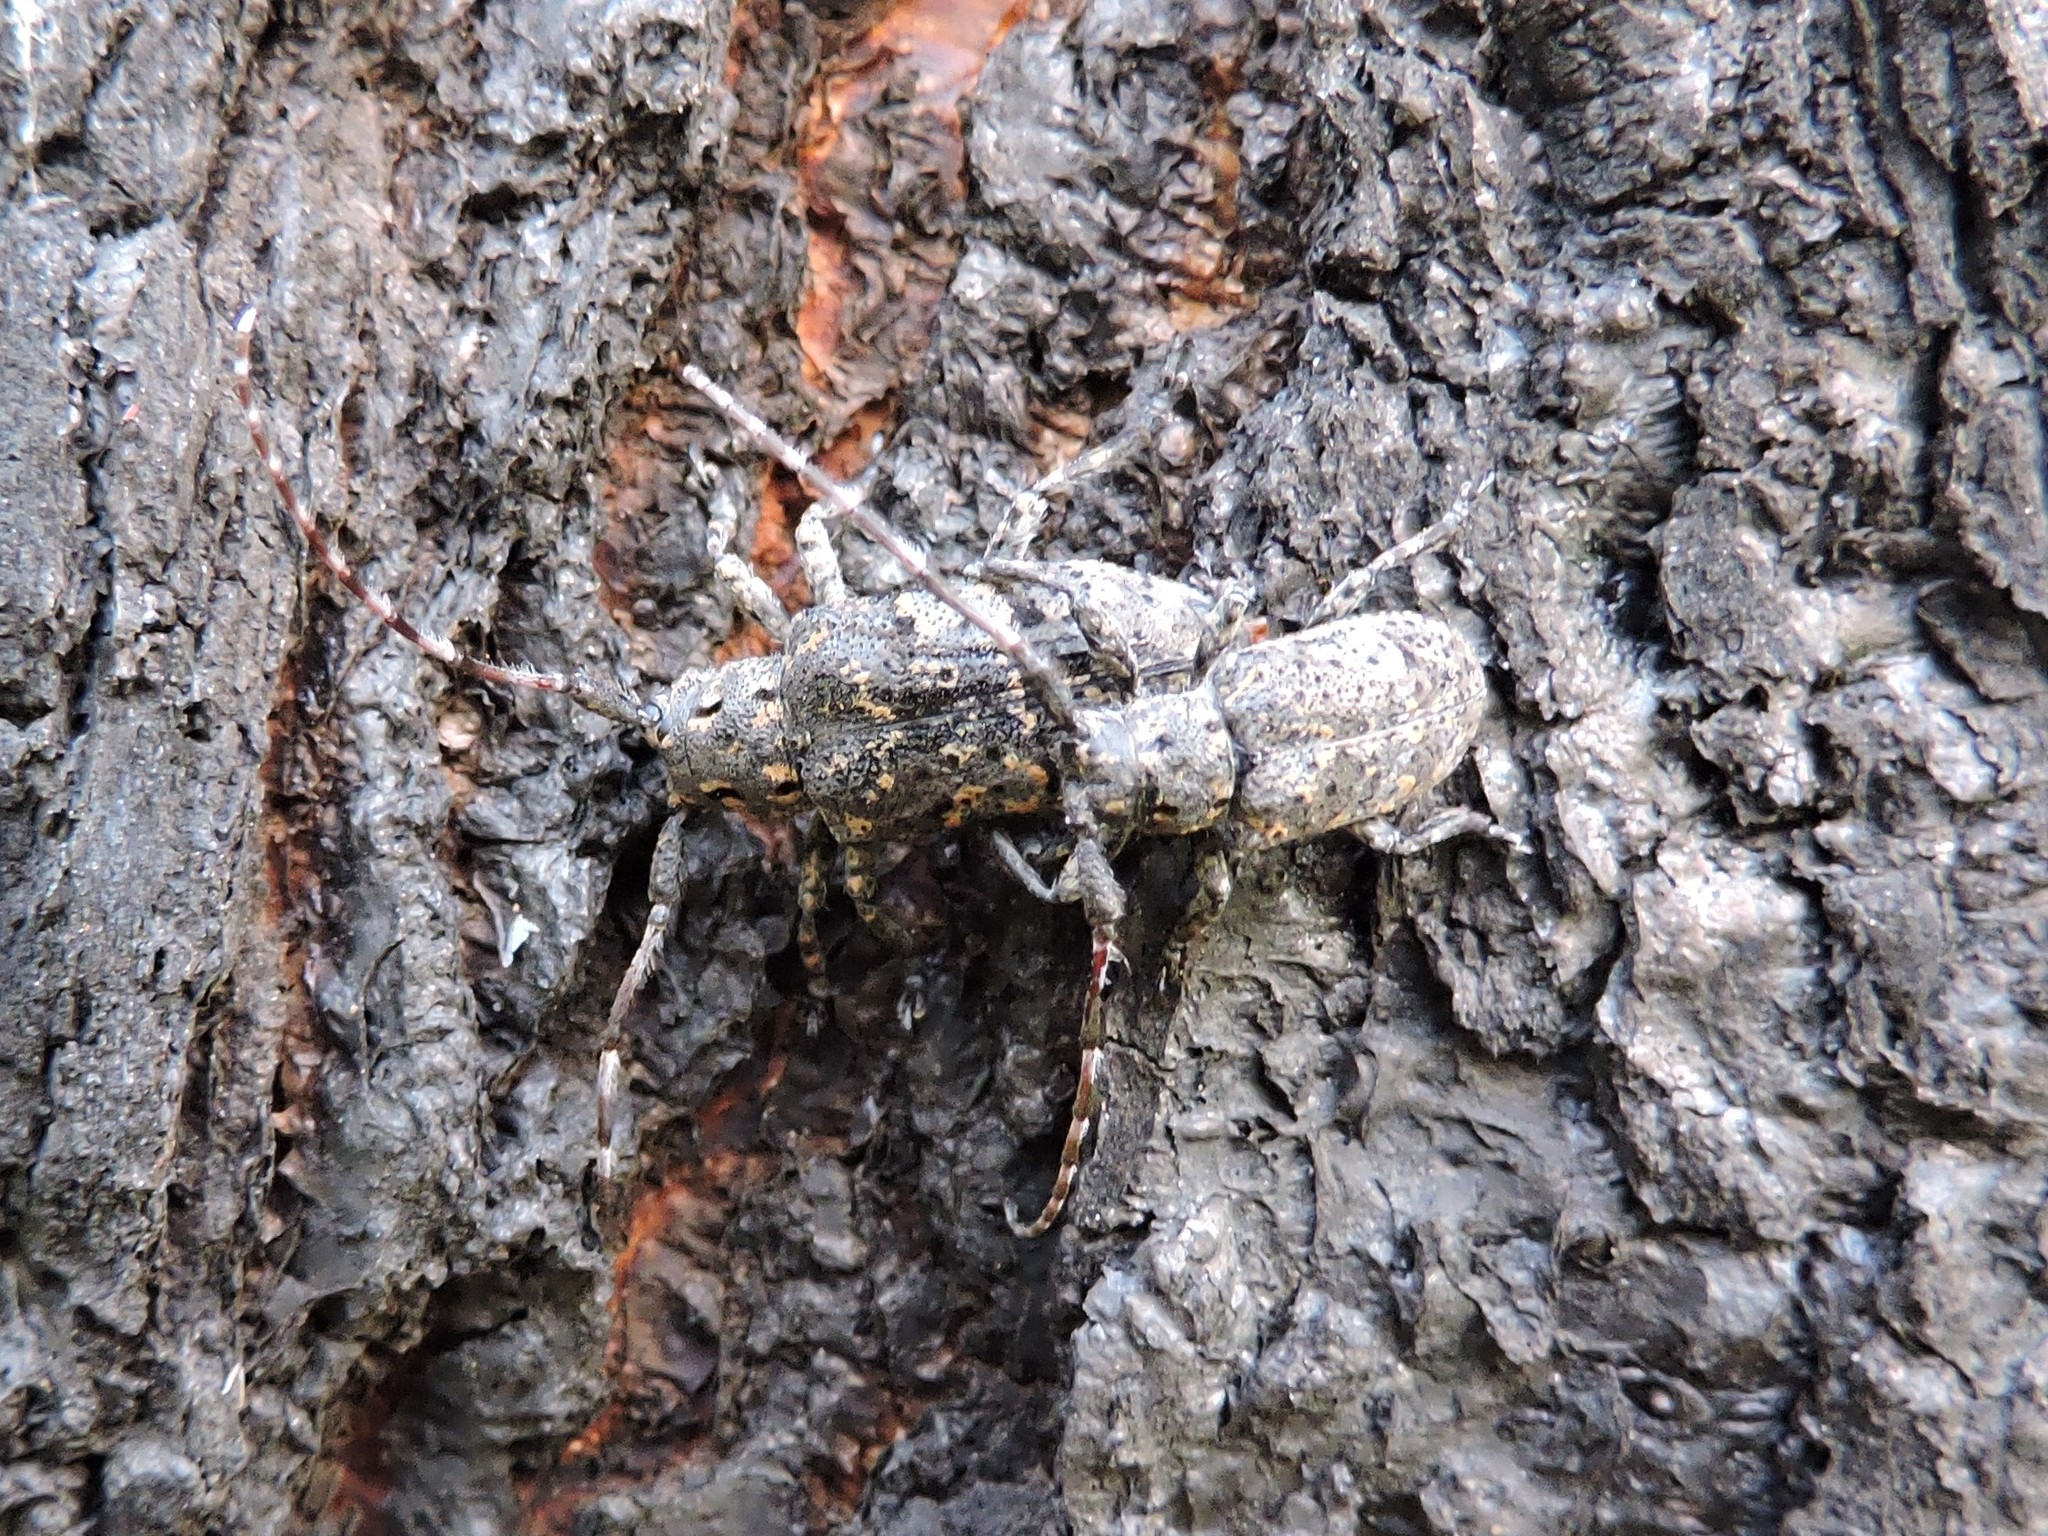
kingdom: Animalia
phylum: Arthropoda
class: Insecta
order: Coleoptera
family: Cerambycidae
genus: Mesosa
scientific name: Mesosa myops
